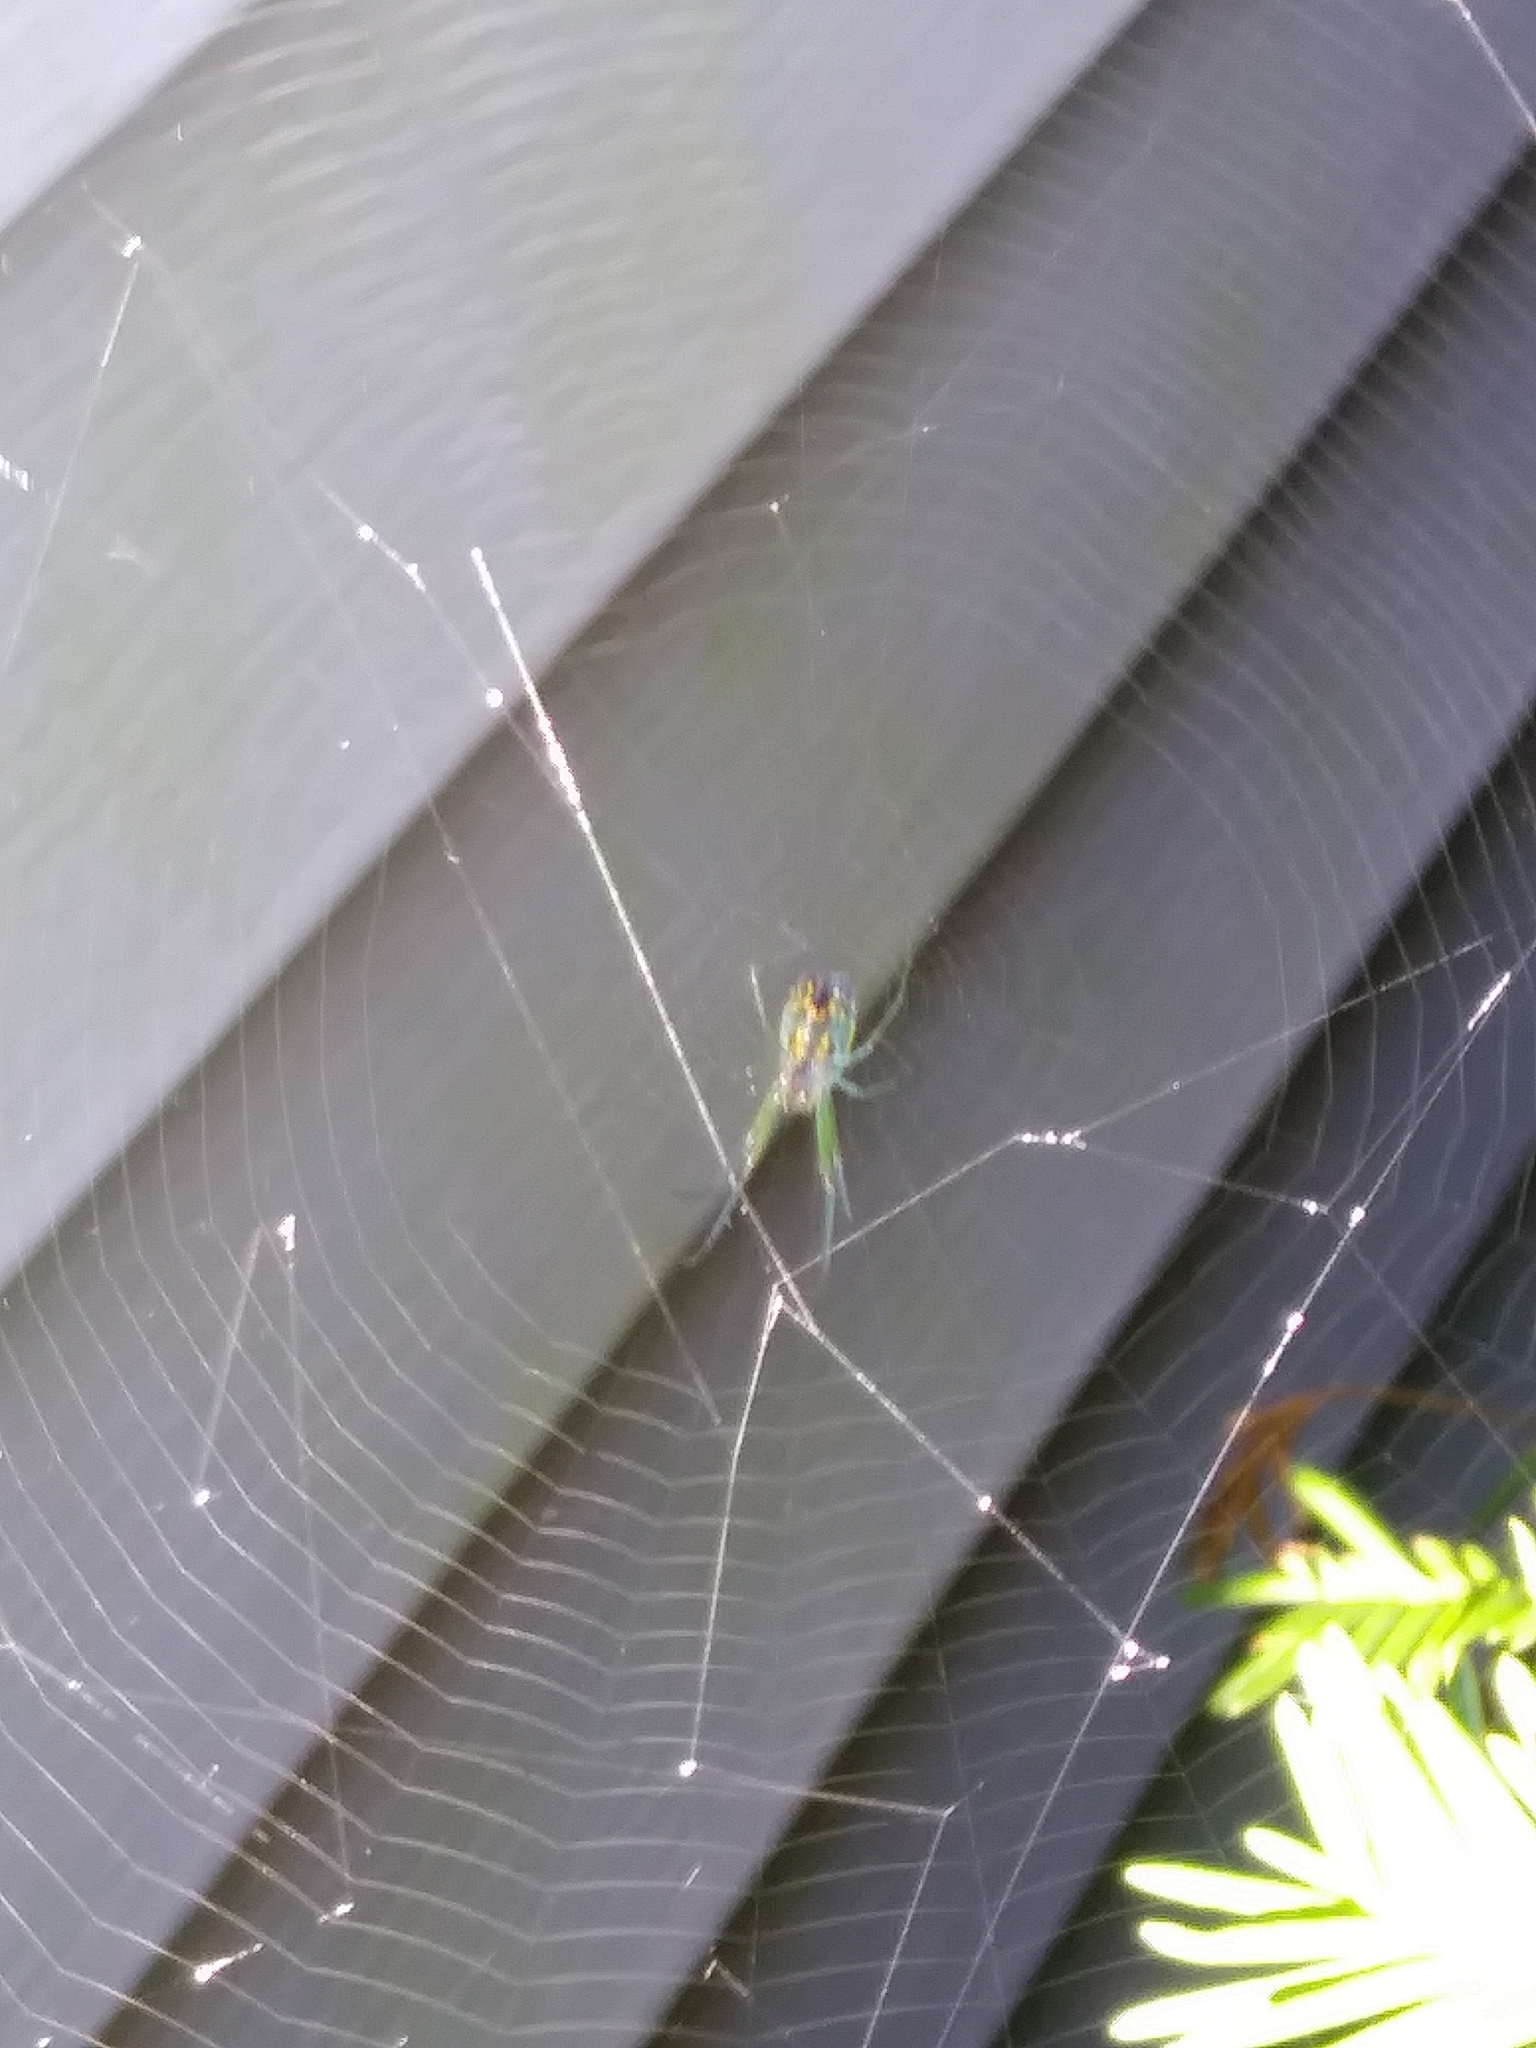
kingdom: Animalia
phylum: Arthropoda
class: Arachnida
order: Araneae
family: Tetragnathidae
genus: Leucauge
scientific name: Leucauge venusta
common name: Longjawed orb weavers
